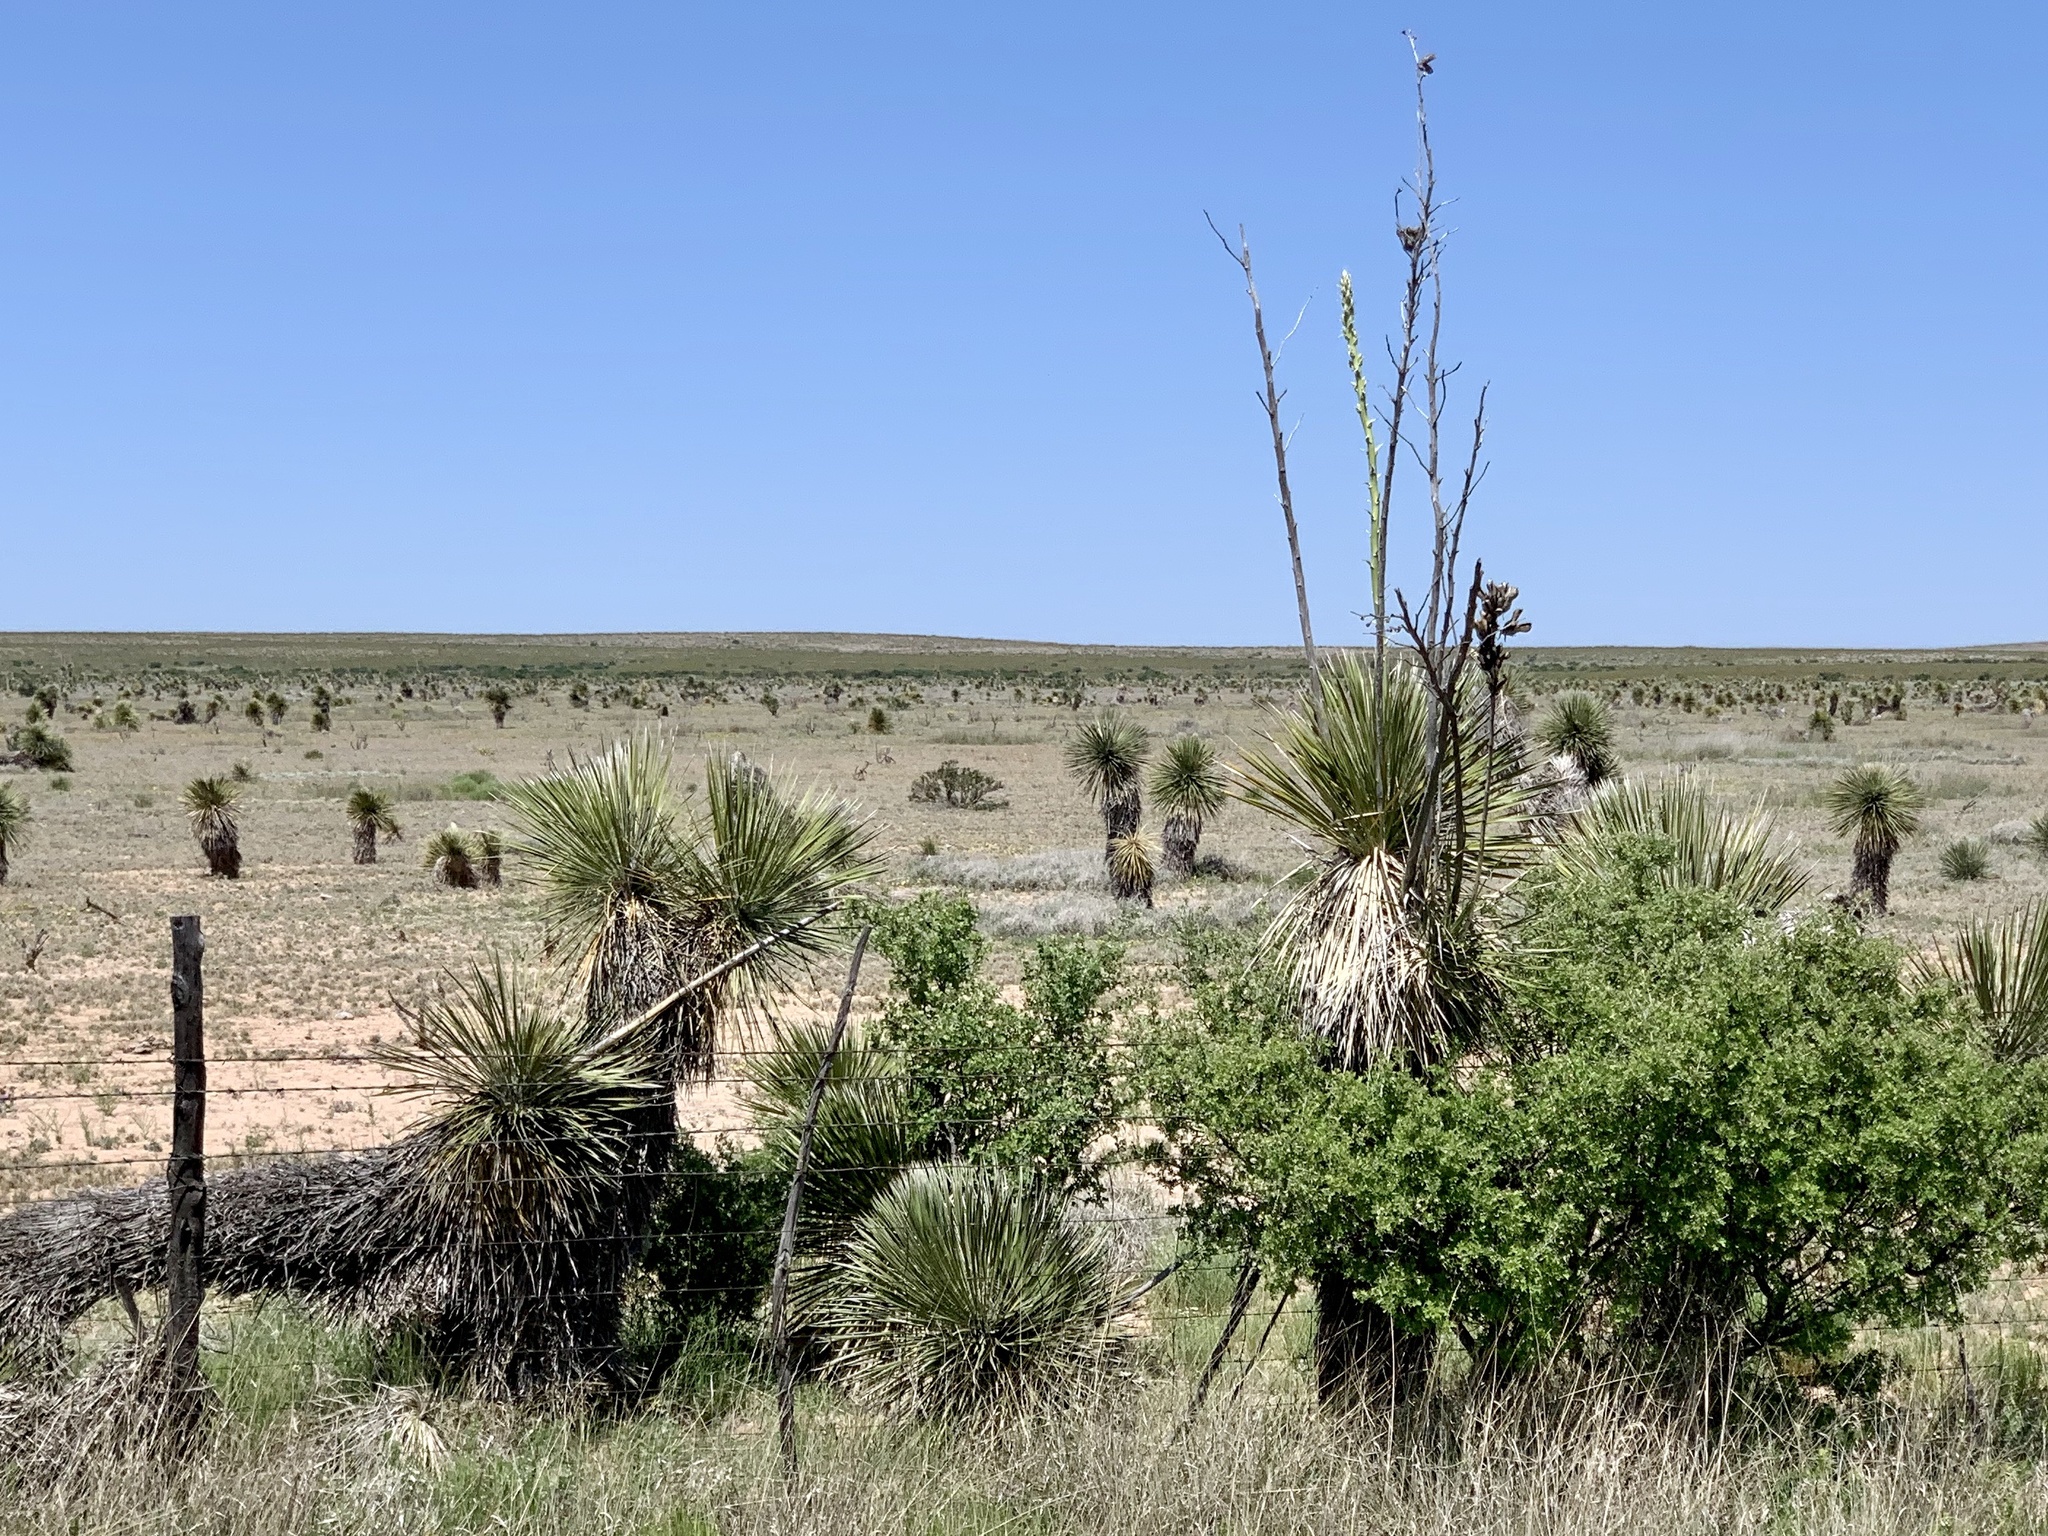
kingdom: Plantae
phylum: Tracheophyta
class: Liliopsida
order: Asparagales
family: Asparagaceae
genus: Yucca
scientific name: Yucca elata
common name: Palmella
